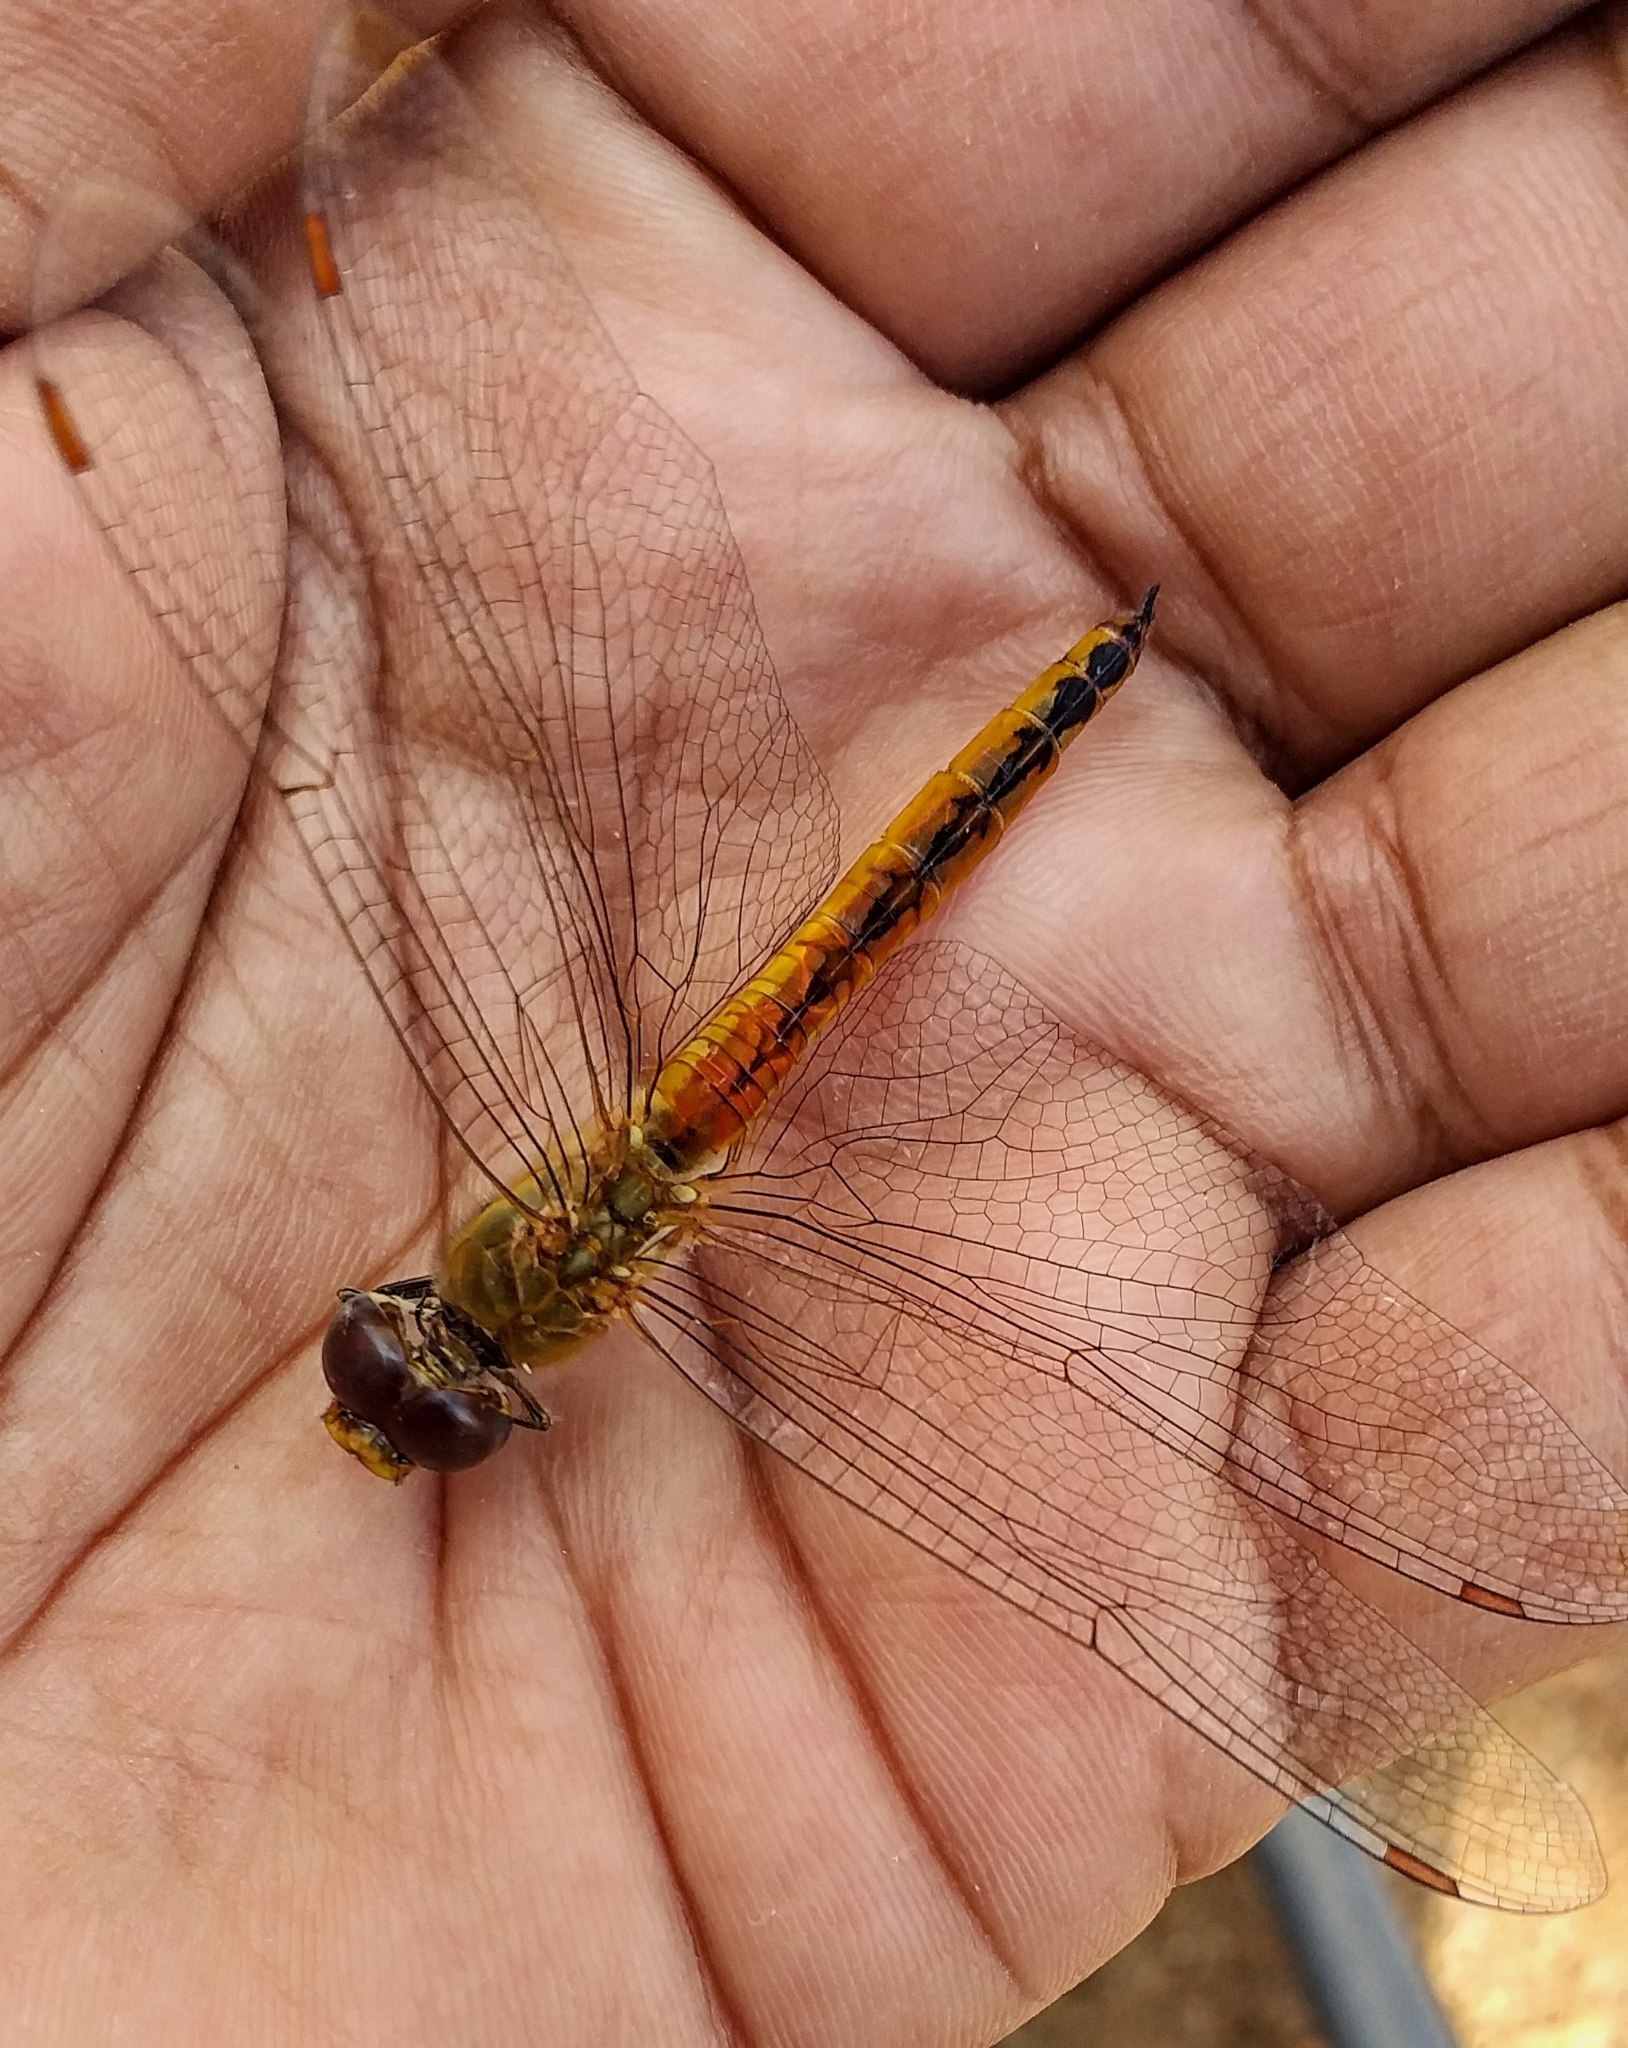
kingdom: Animalia
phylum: Arthropoda
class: Insecta
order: Odonata
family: Libellulidae
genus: Pantala
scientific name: Pantala flavescens
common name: Wandering glider
